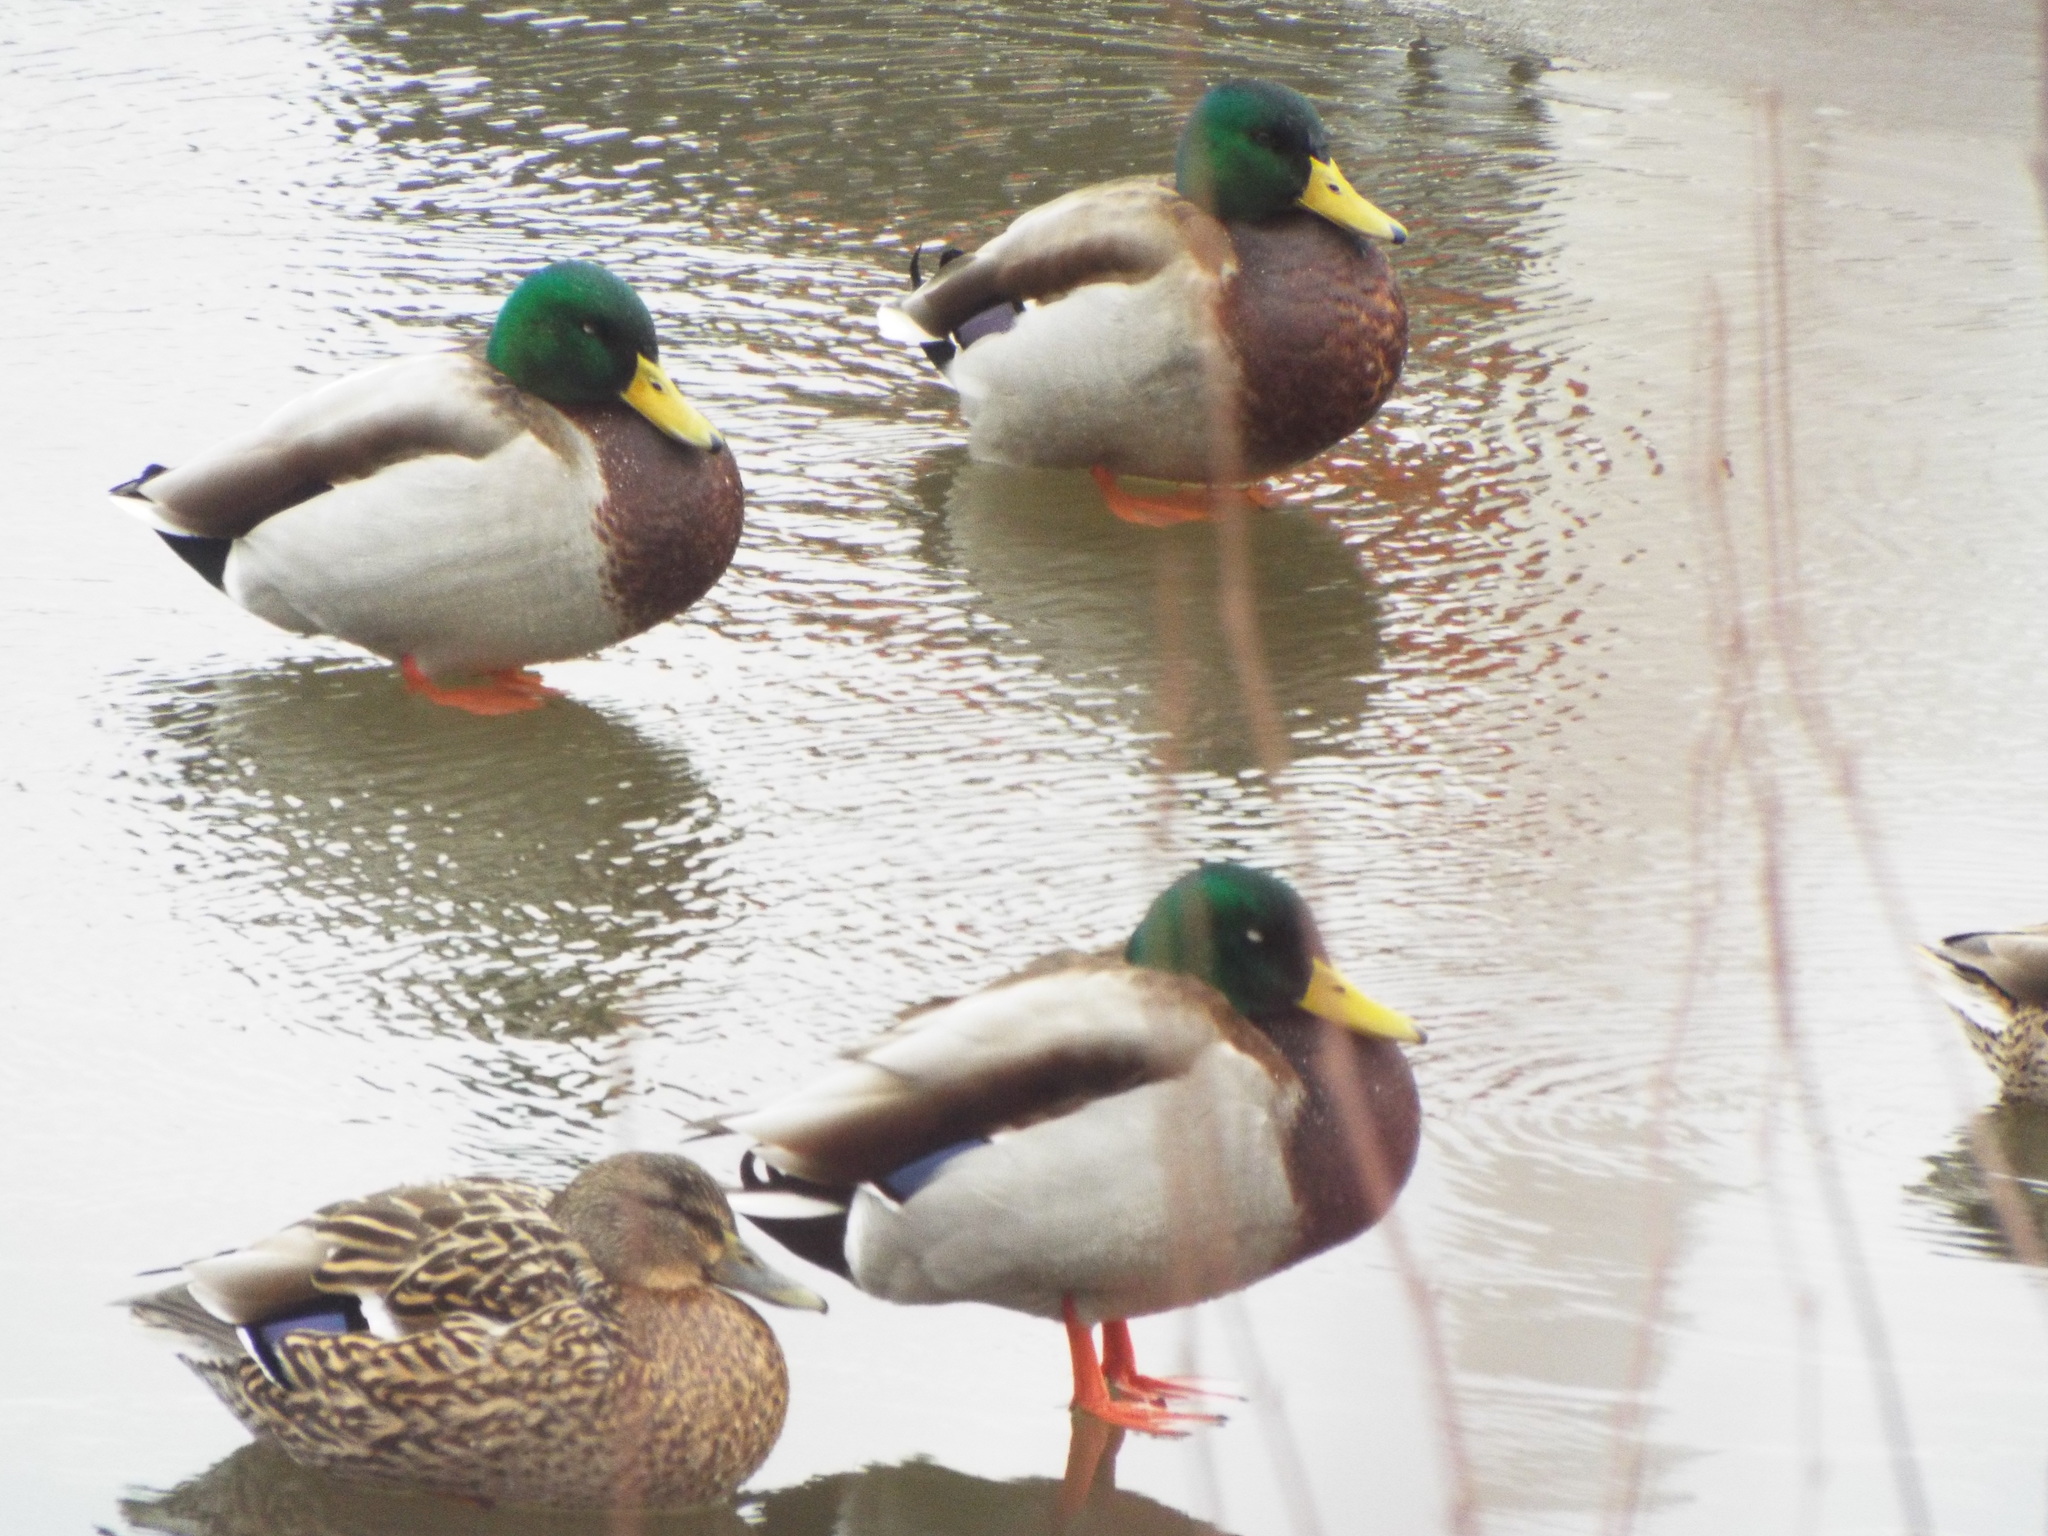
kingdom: Animalia
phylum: Chordata
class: Aves
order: Anseriformes
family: Anatidae
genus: Anas
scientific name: Anas platyrhynchos
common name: Mallard
